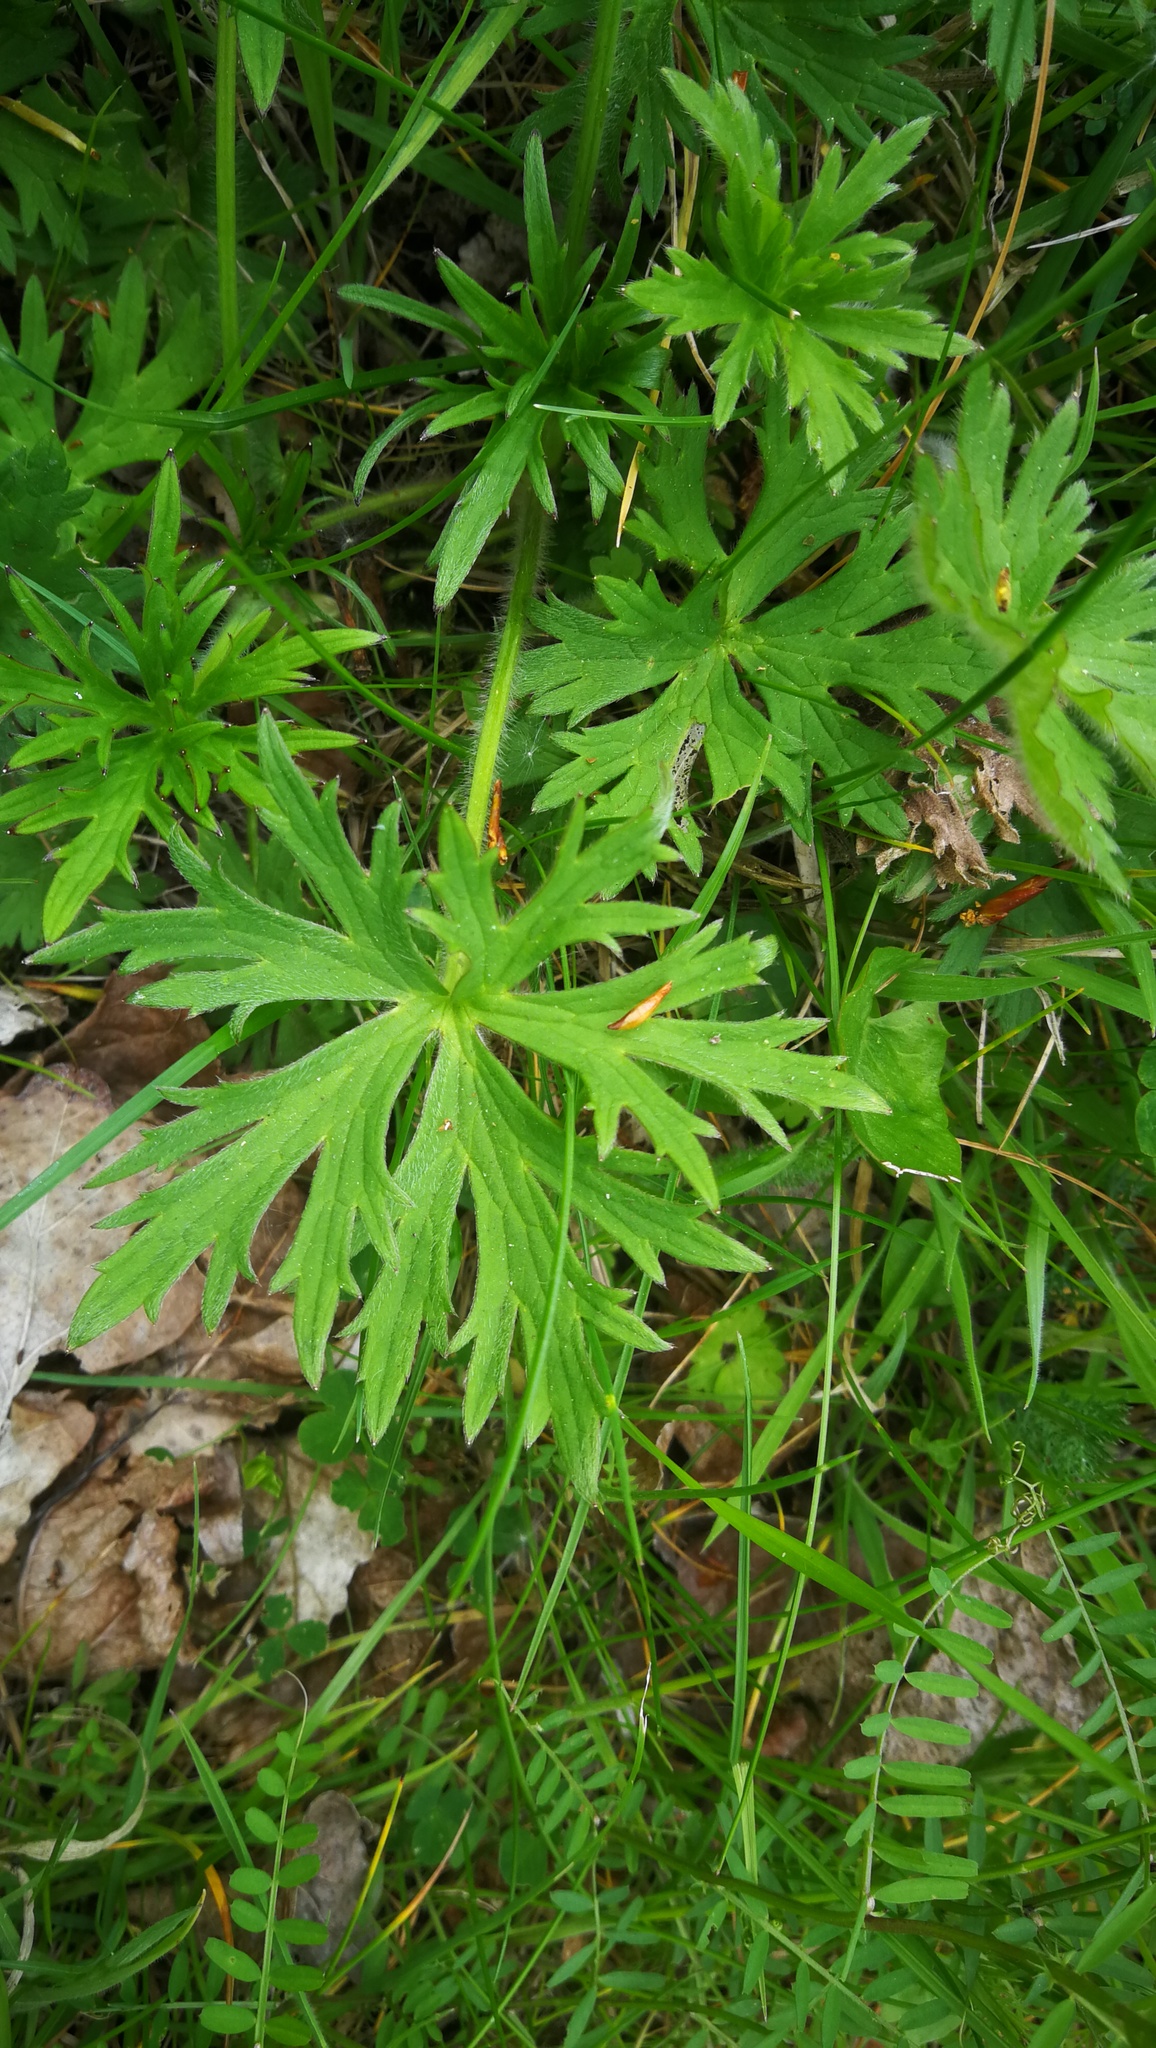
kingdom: Plantae
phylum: Tracheophyta
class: Magnoliopsida
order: Ranunculales
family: Ranunculaceae
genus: Ranunculus
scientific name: Ranunculus acris
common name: Meadow buttercup
